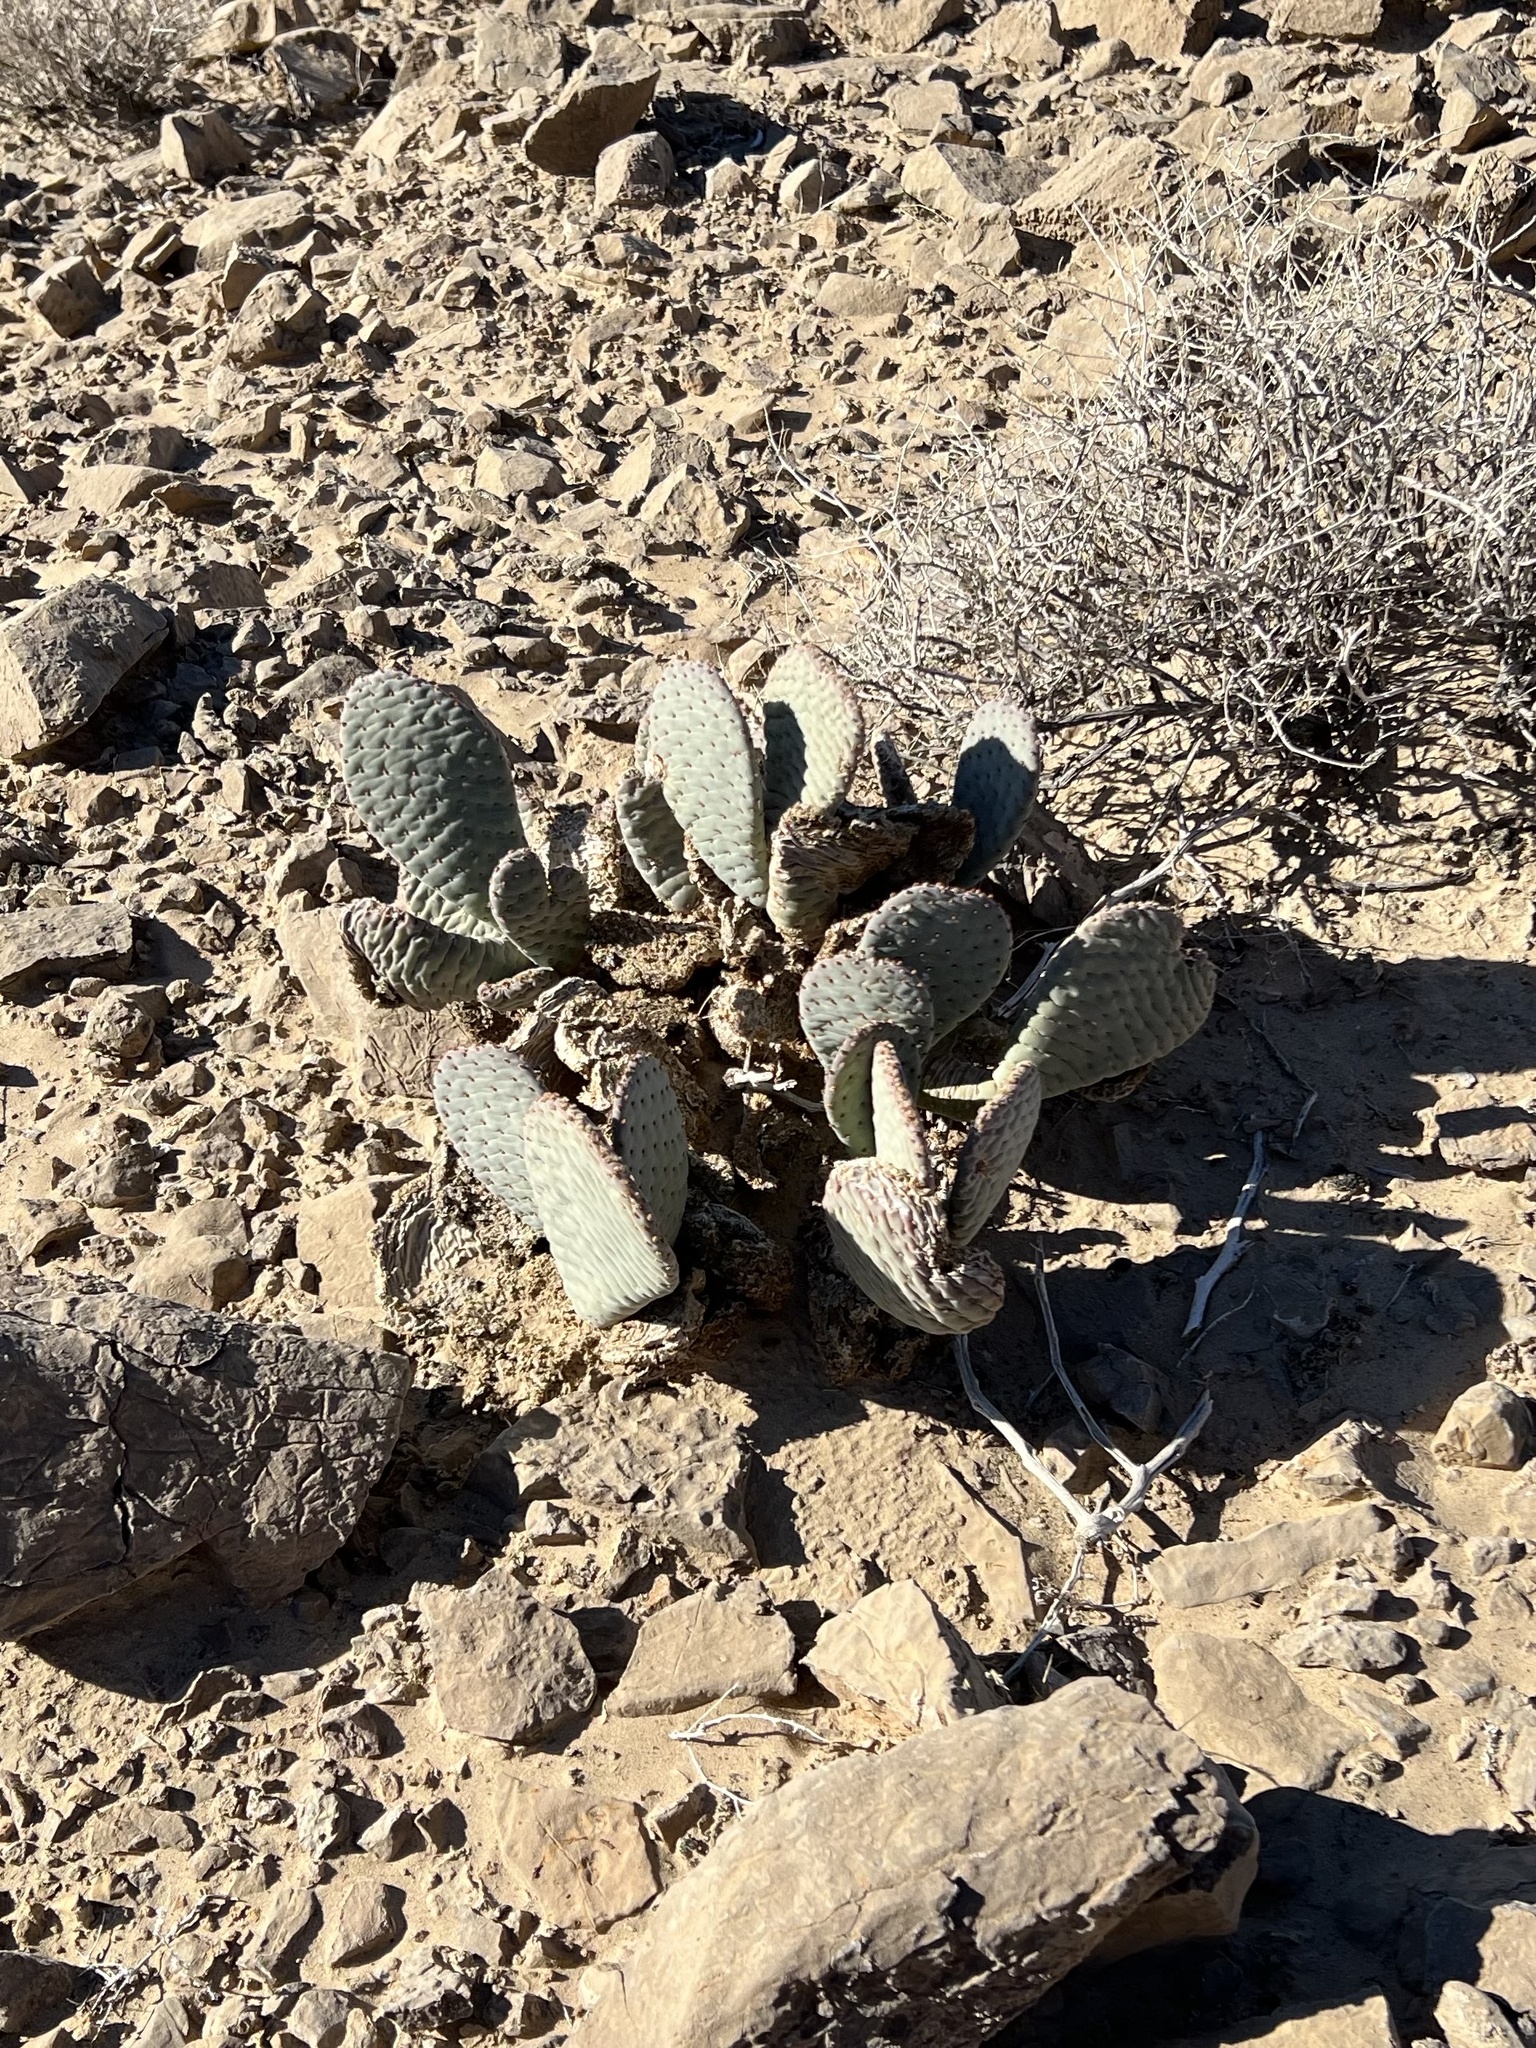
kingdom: Plantae
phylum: Tracheophyta
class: Magnoliopsida
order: Caryophyllales
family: Cactaceae
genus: Opuntia
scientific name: Opuntia basilaris
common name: Beavertail prickly-pear
